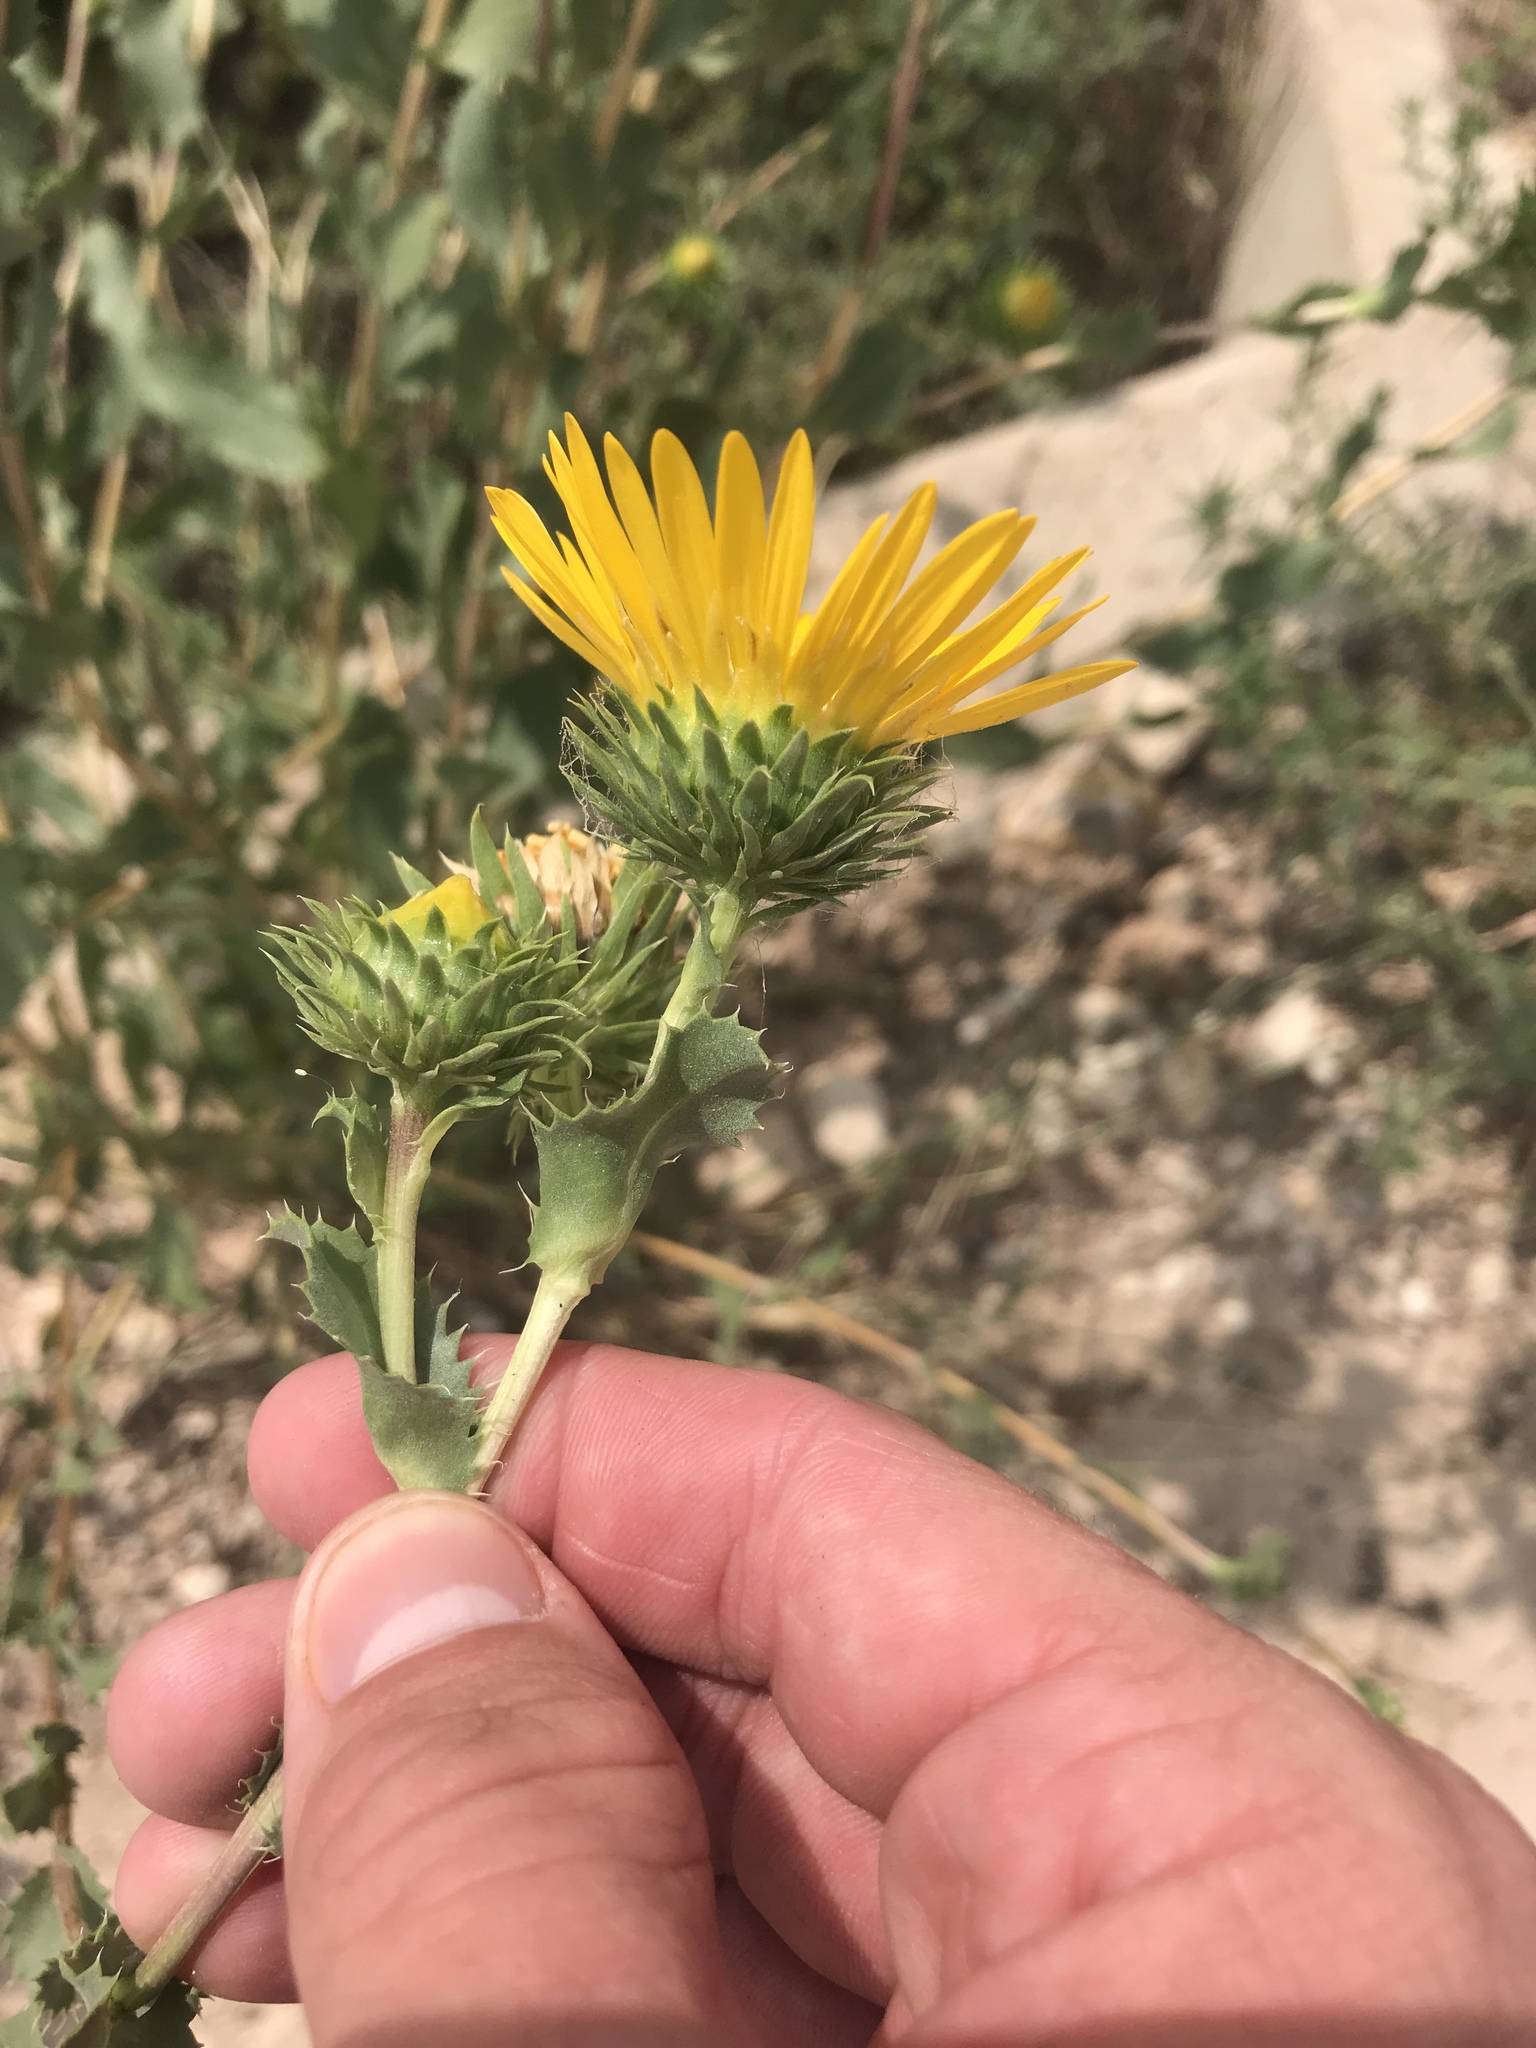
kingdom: Plantae
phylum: Tracheophyta
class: Magnoliopsida
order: Asterales
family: Asteraceae
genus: Grindelia
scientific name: Grindelia ciliata
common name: Goldenweed
